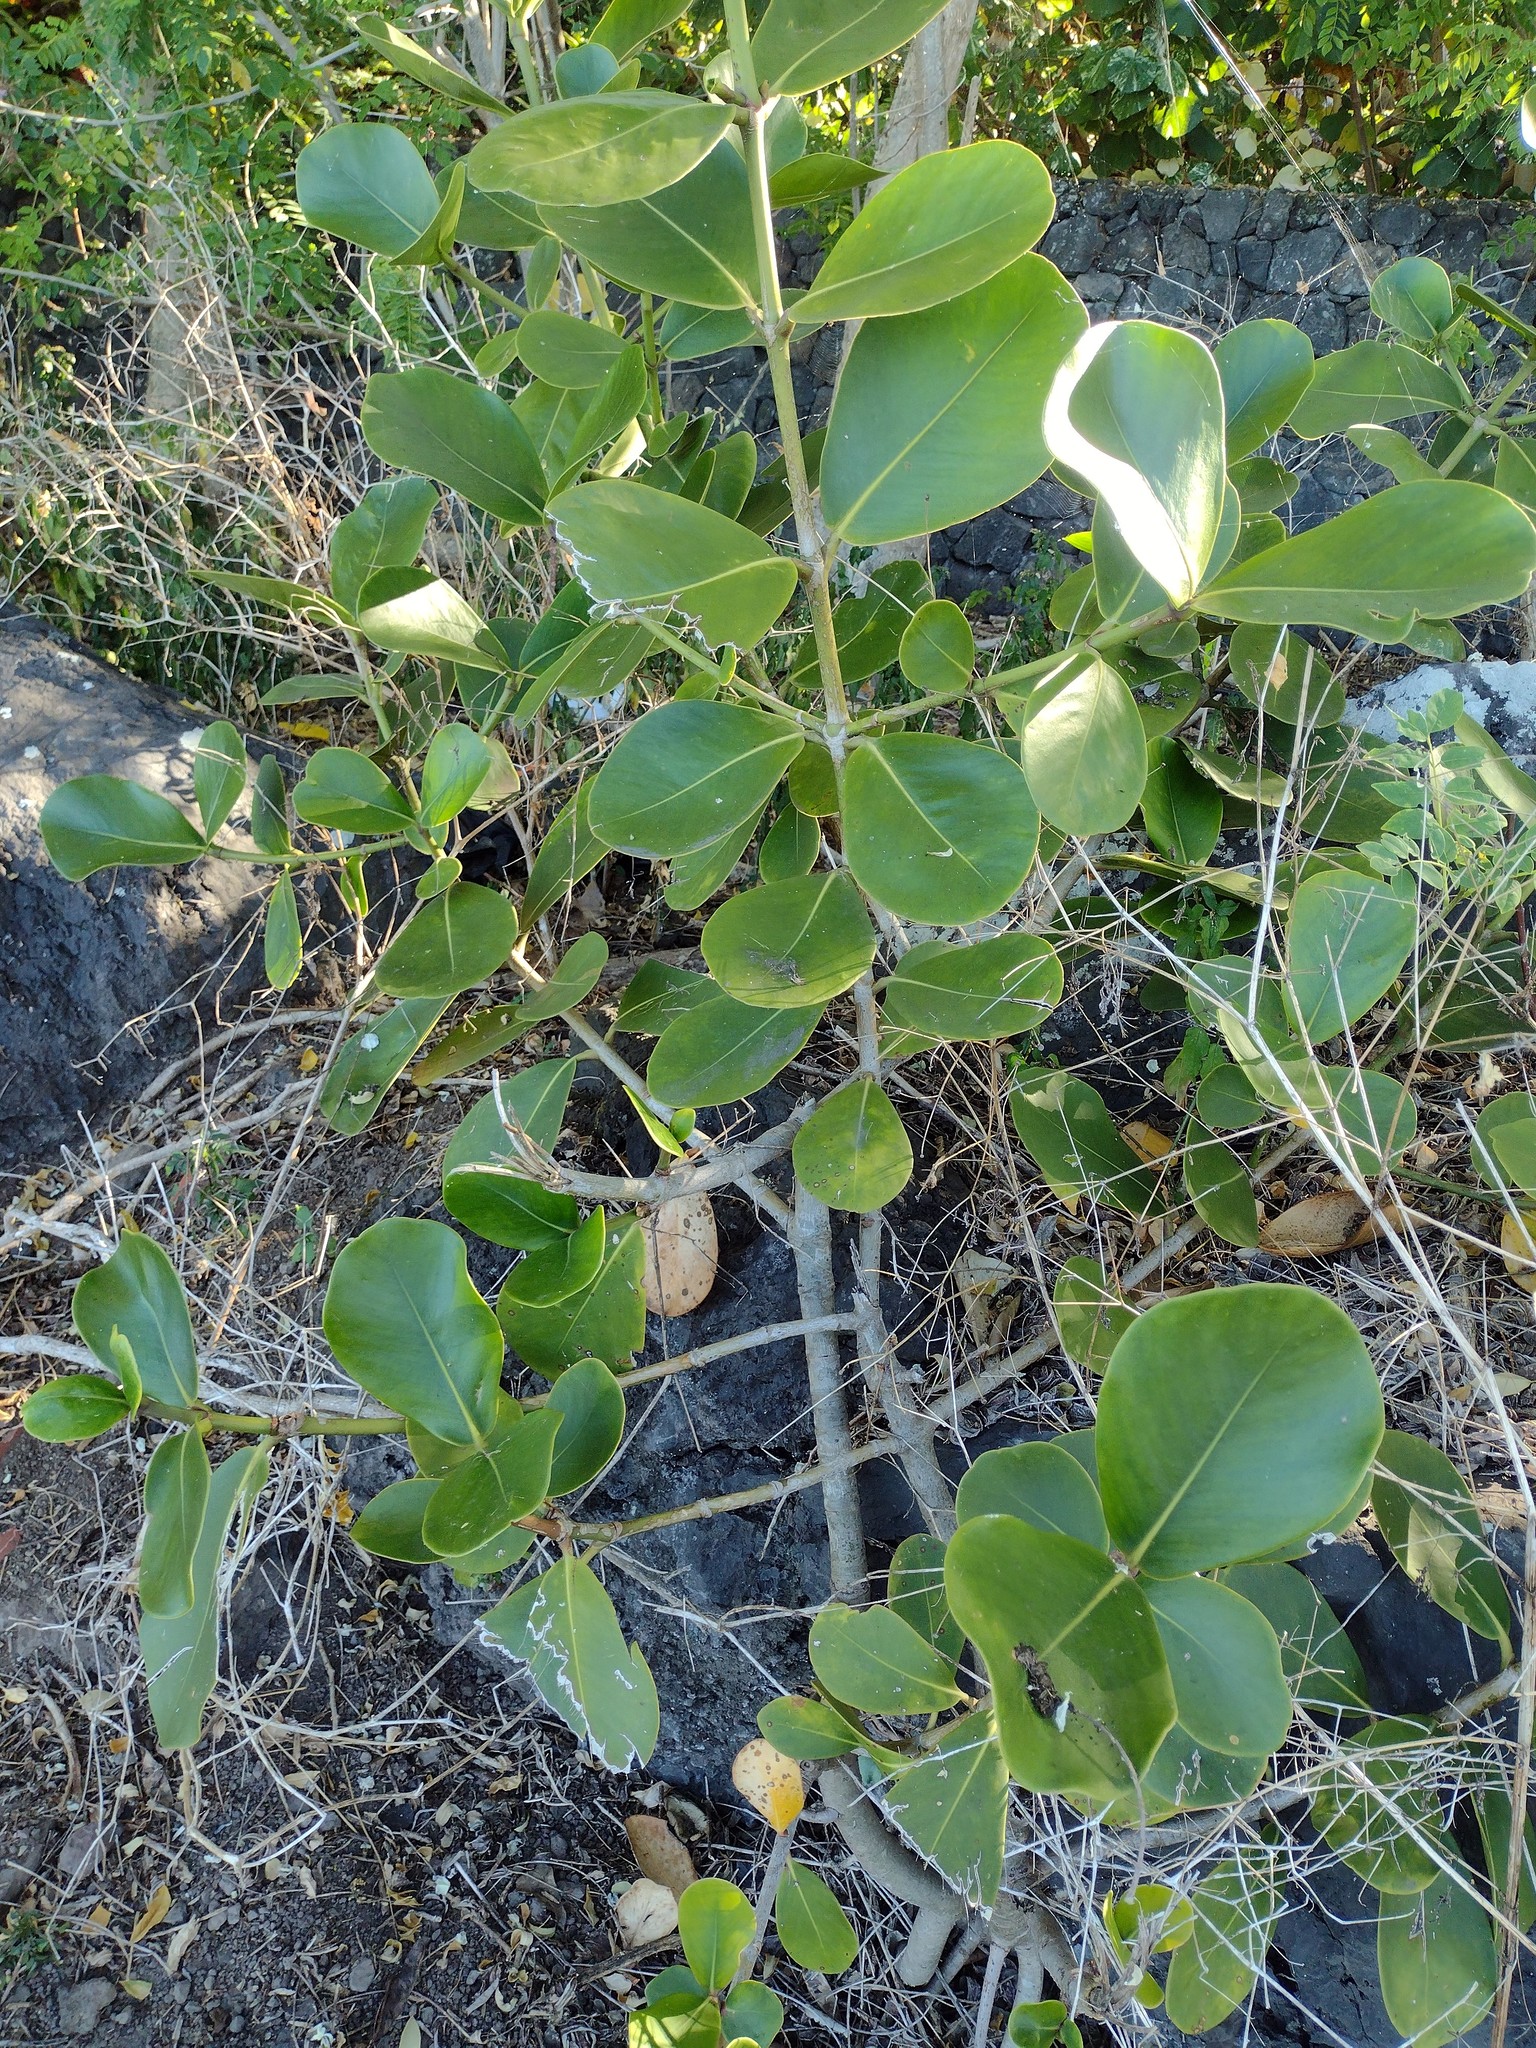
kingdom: Plantae
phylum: Tracheophyta
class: Magnoliopsida
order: Malpighiales
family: Clusiaceae
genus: Clusia
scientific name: Clusia rosea
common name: Scotch attorney
